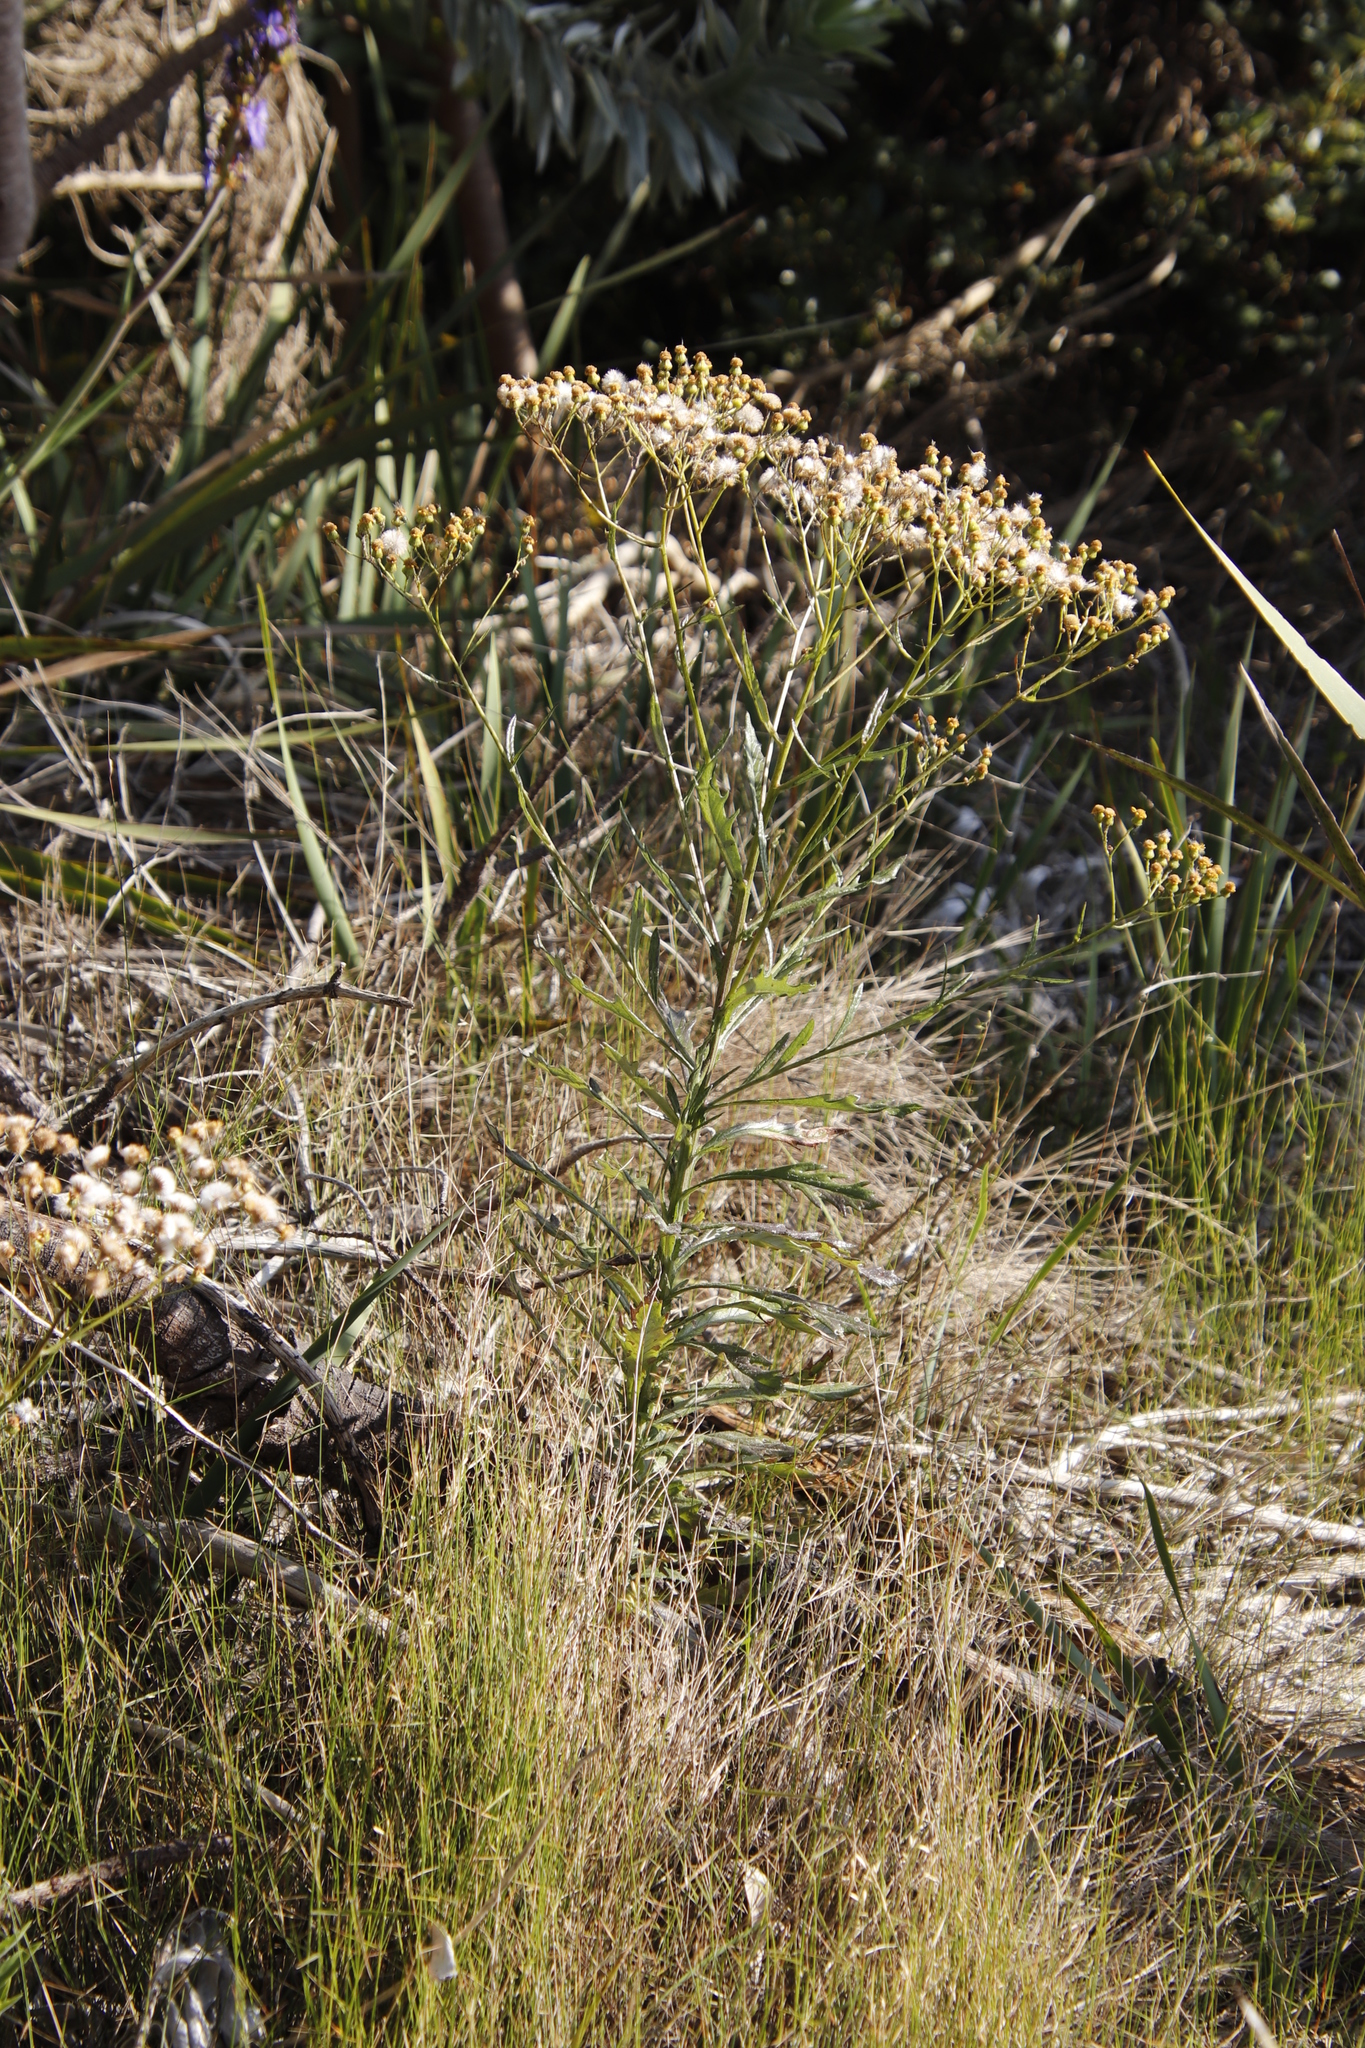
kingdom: Plantae
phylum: Tracheophyta
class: Magnoliopsida
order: Asterales
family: Asteraceae
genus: Senecio
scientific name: Senecio pterophorus
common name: Shoddy ragwort
